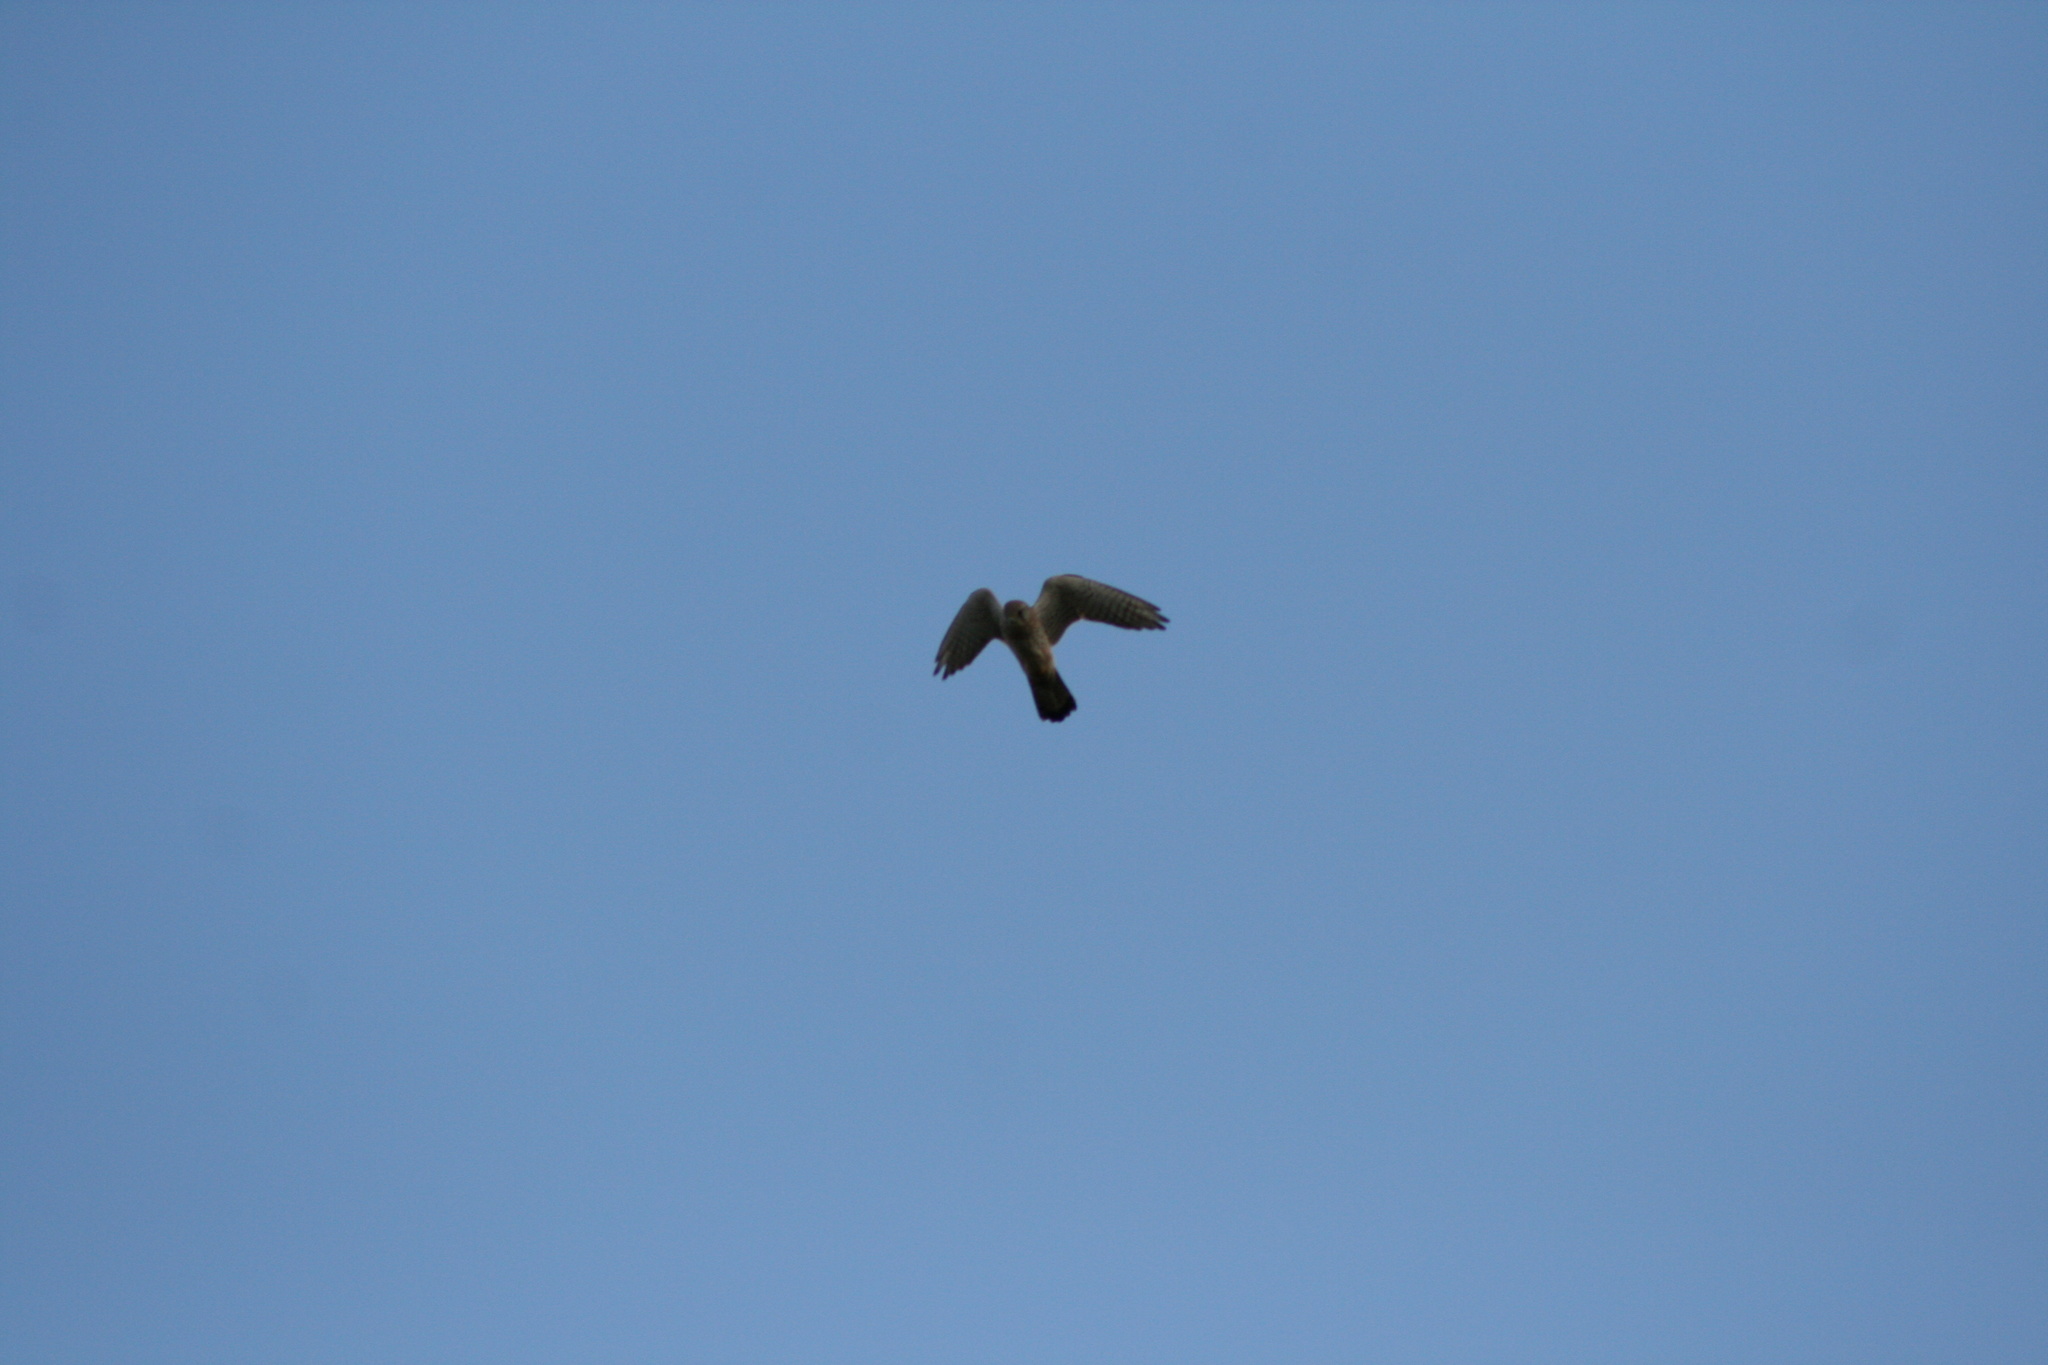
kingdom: Animalia
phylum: Chordata
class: Aves
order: Falconiformes
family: Falconidae
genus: Falco
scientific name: Falco tinnunculus
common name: Common kestrel
